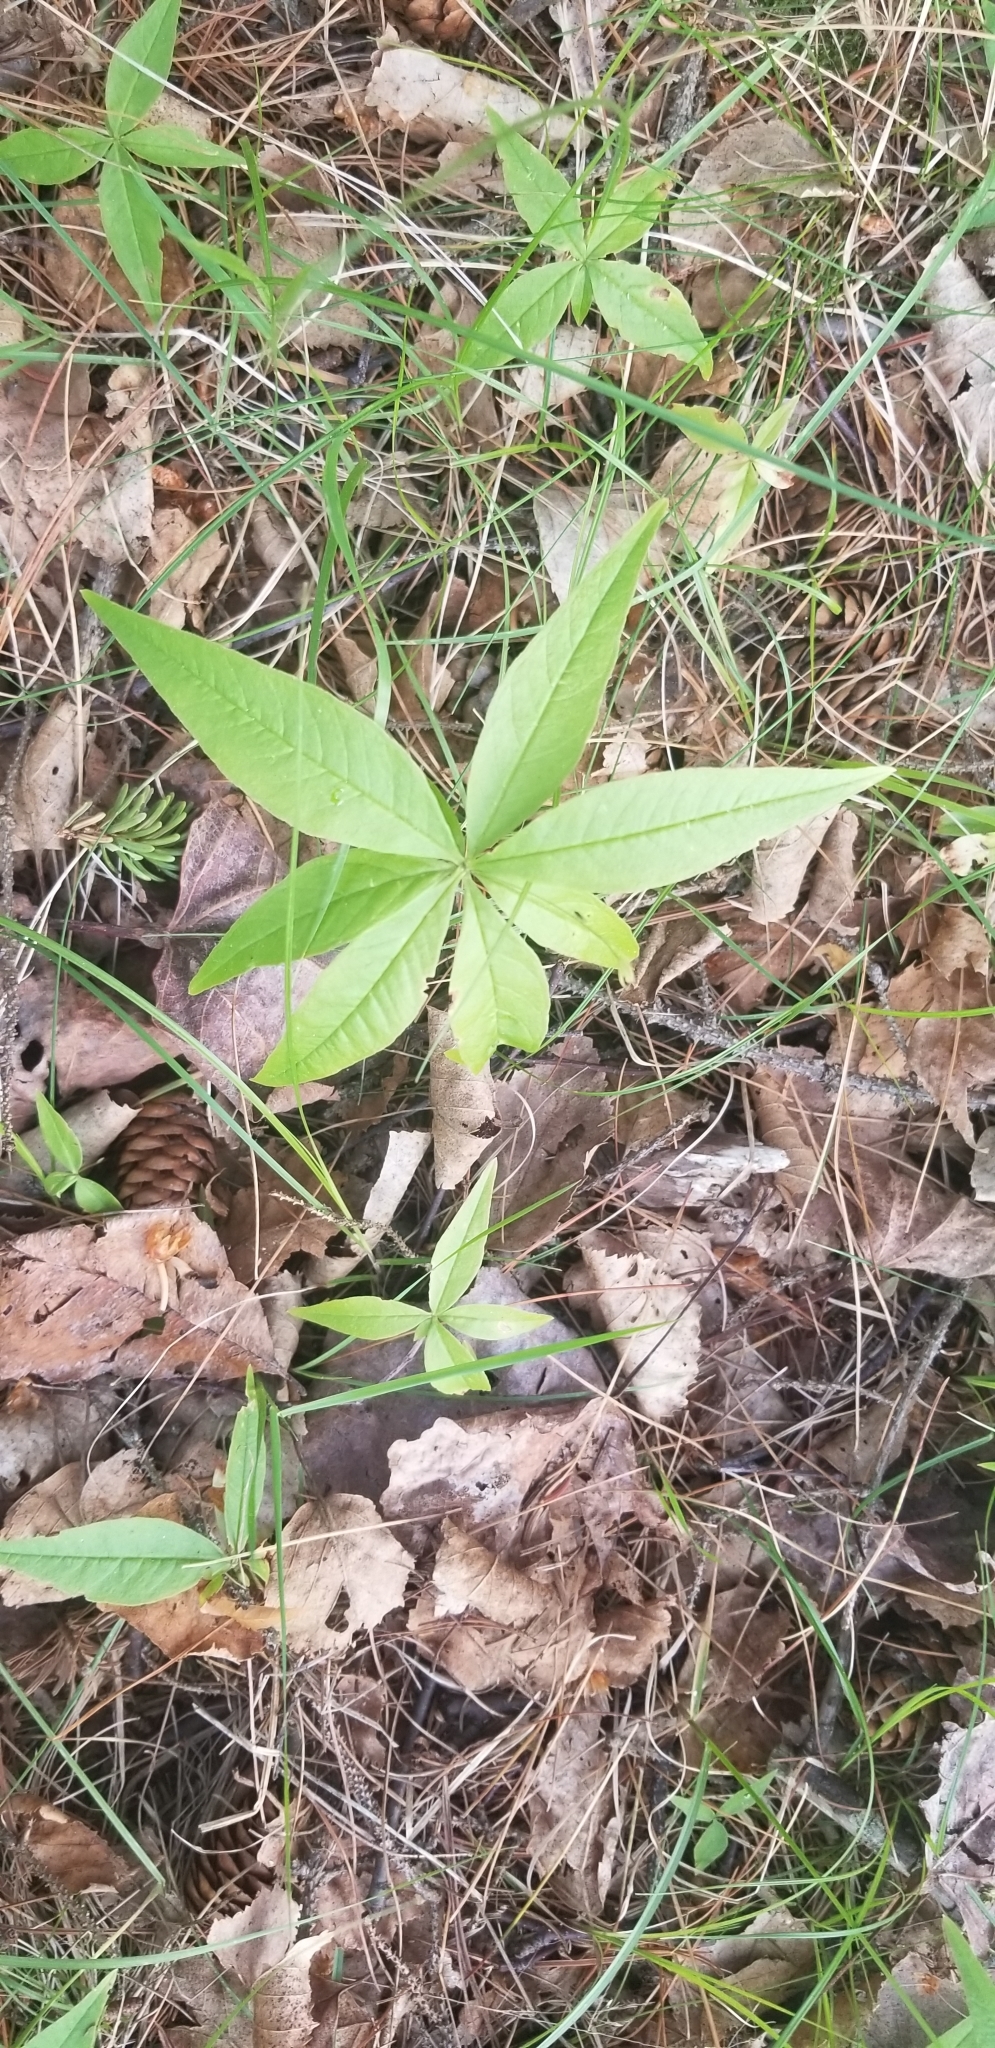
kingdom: Plantae
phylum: Tracheophyta
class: Magnoliopsida
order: Ericales
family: Primulaceae
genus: Lysimachia
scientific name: Lysimachia borealis
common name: American starflower
